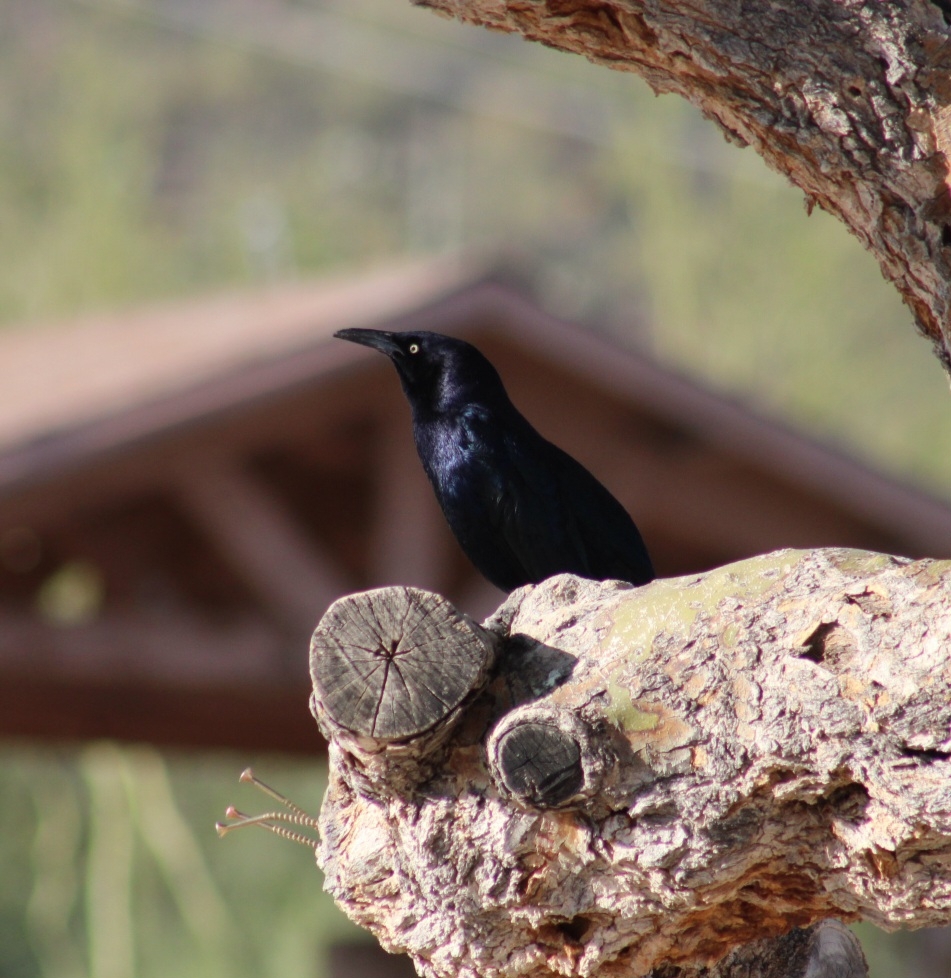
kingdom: Animalia
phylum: Chordata
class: Aves
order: Passeriformes
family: Icteridae
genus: Quiscalus
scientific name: Quiscalus mexicanus
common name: Great-tailed grackle
